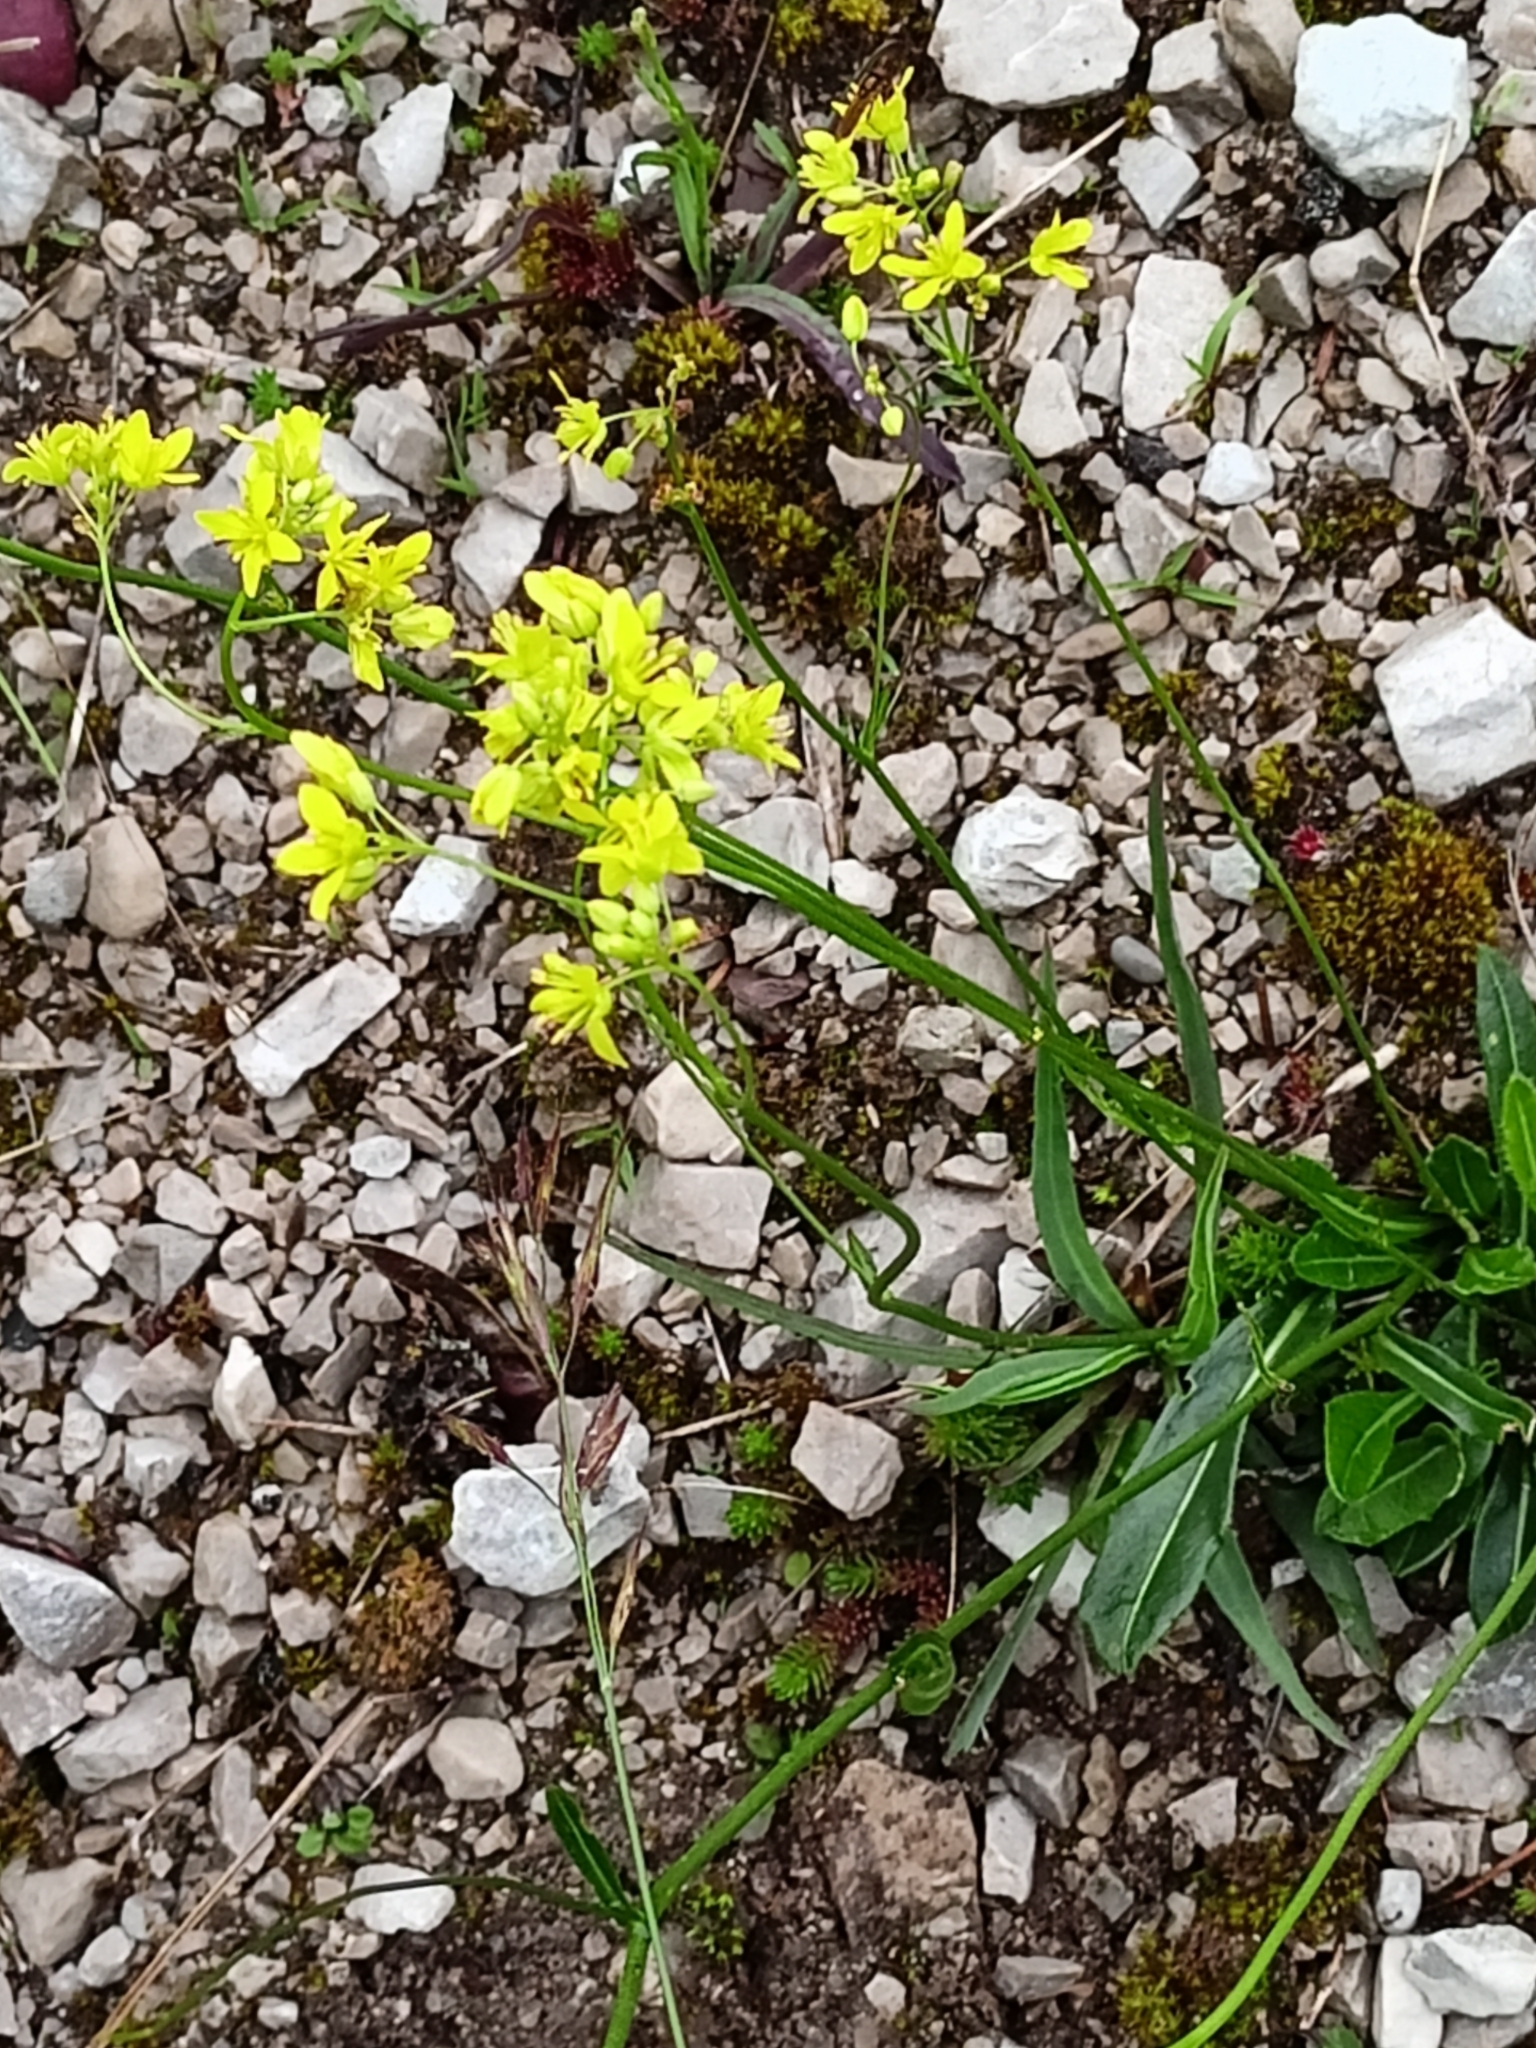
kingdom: Plantae
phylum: Tracheophyta
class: Magnoliopsida
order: Brassicales
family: Brassicaceae
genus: Biscutella
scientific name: Biscutella laevigata
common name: Buckler mustard
